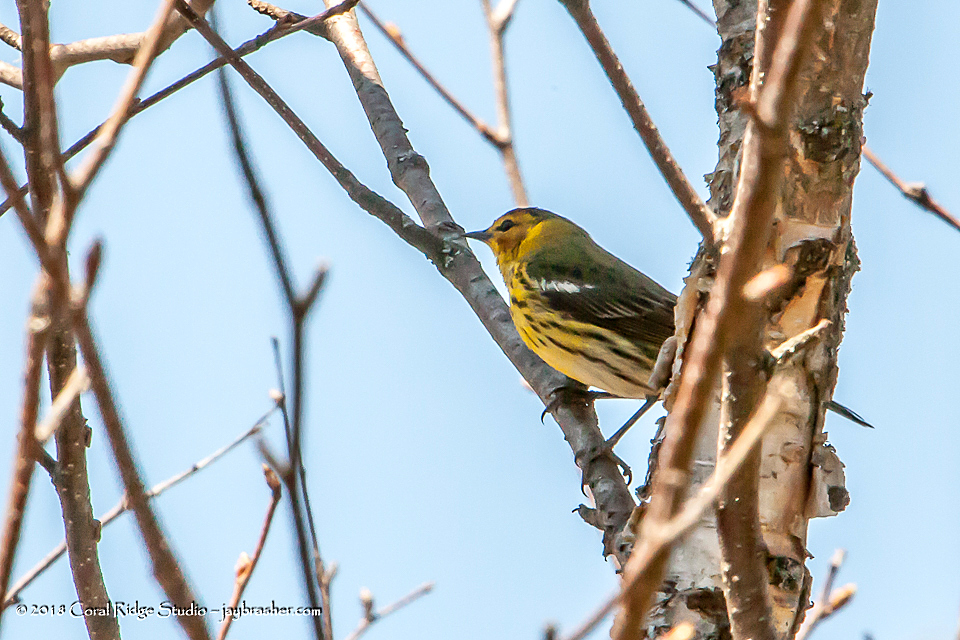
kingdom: Animalia
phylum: Chordata
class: Aves
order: Passeriformes
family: Parulidae
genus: Setophaga
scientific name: Setophaga tigrina
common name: Cape may warbler
